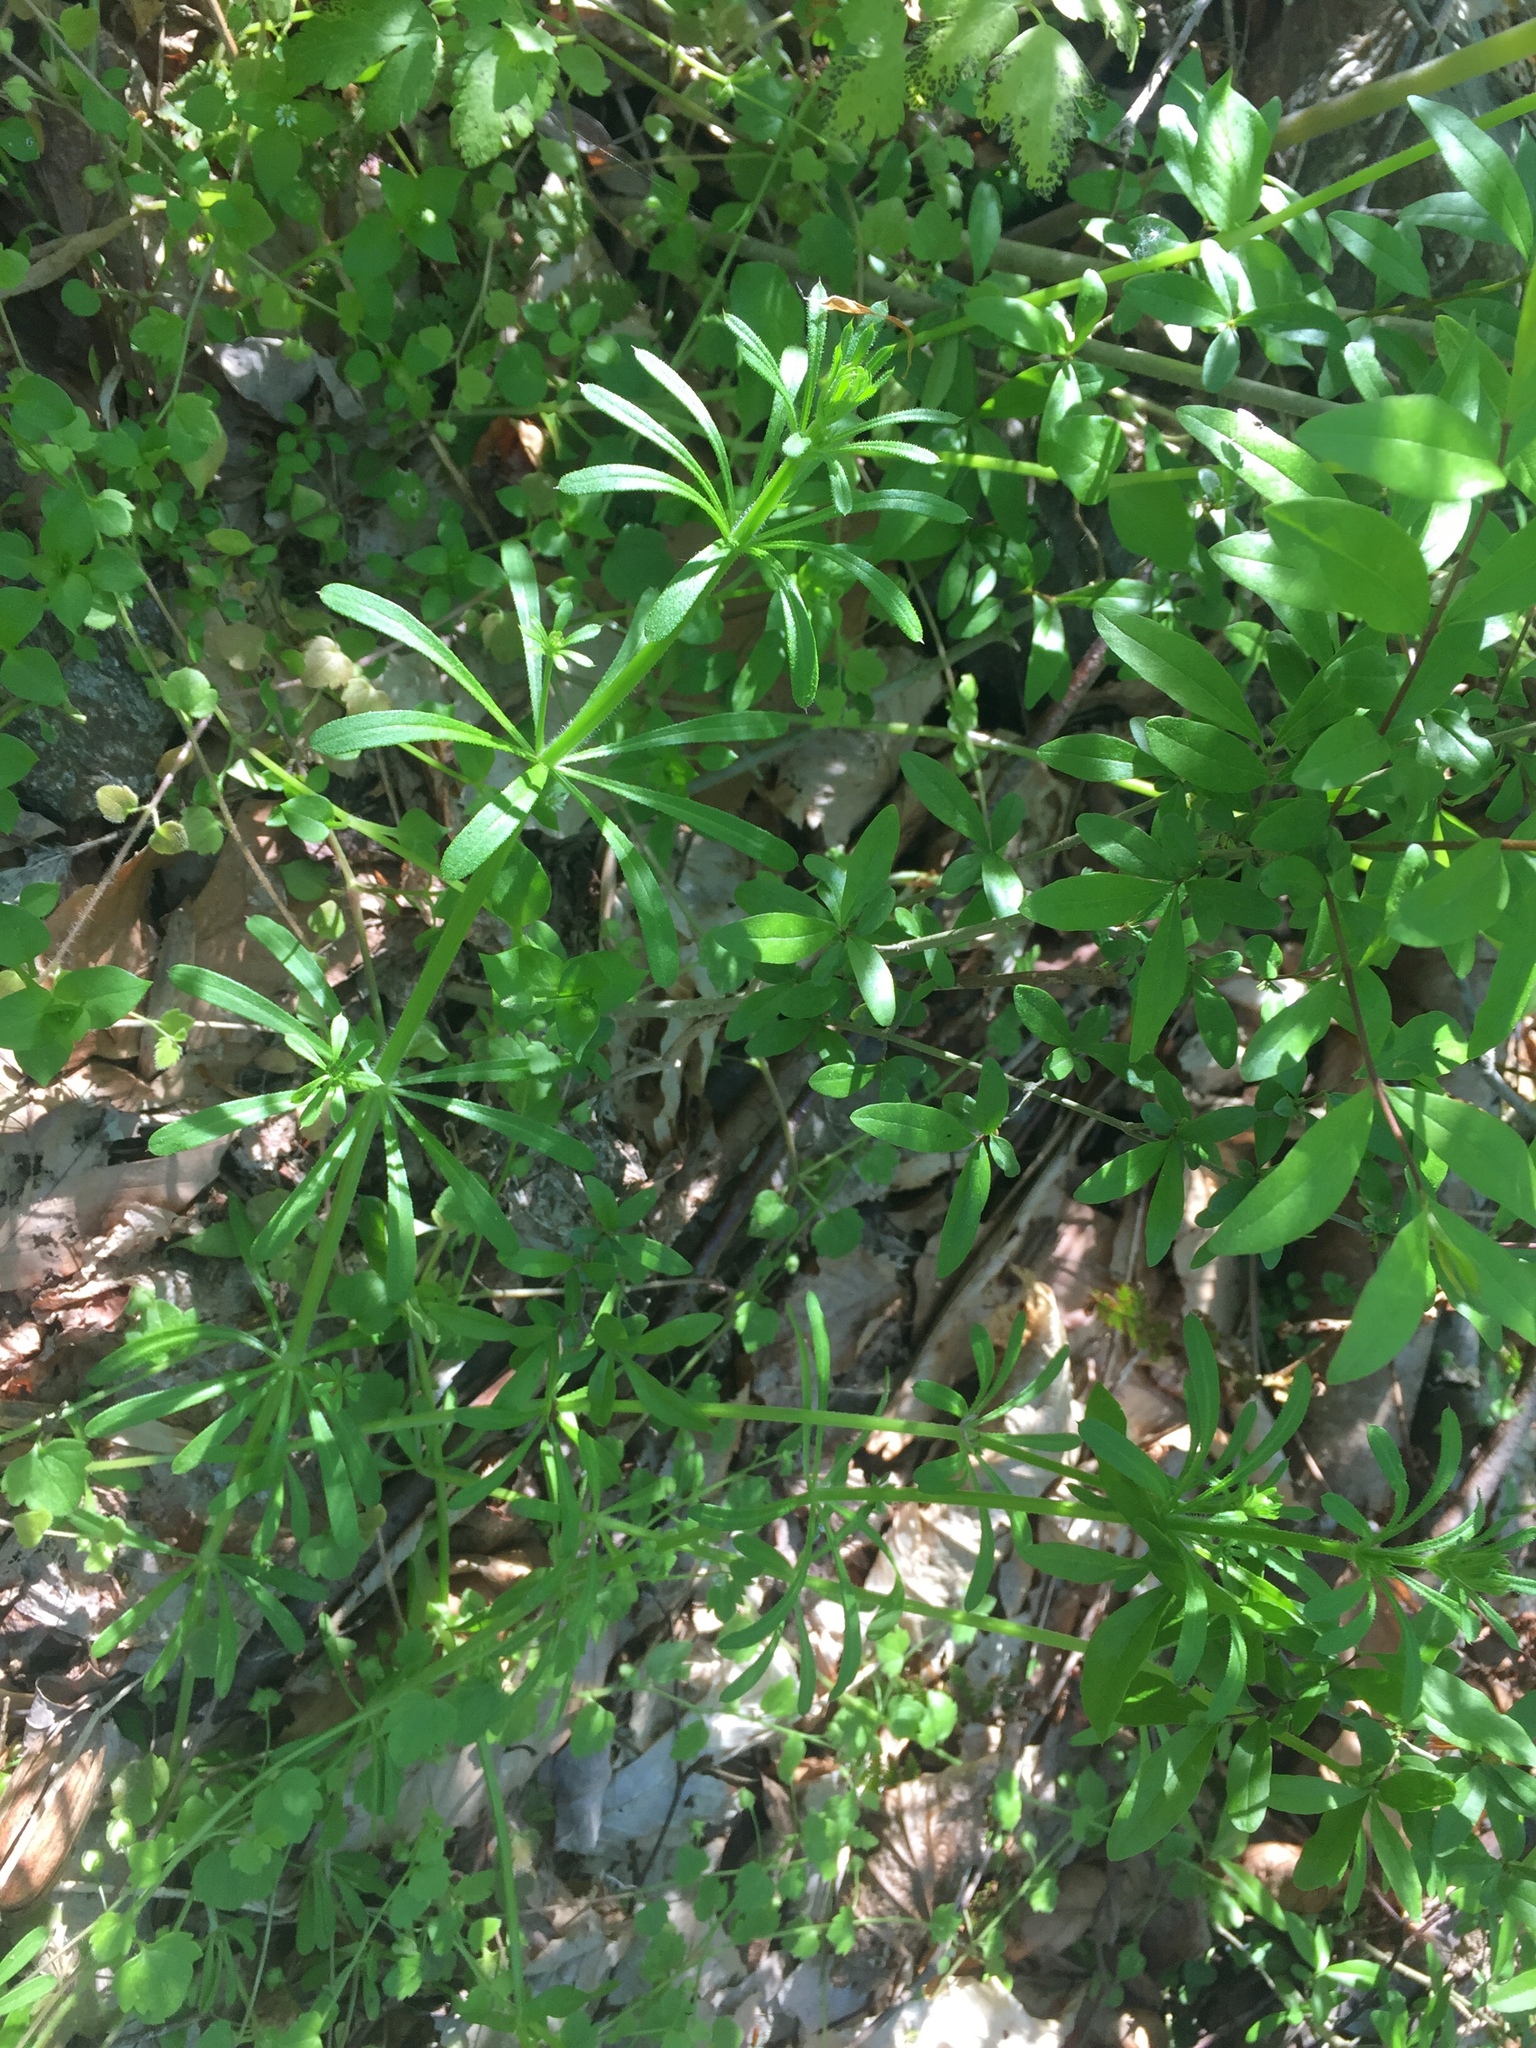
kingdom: Plantae
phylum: Tracheophyta
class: Magnoliopsida
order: Gentianales
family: Rubiaceae
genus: Galium
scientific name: Galium aparine
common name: Cleavers
